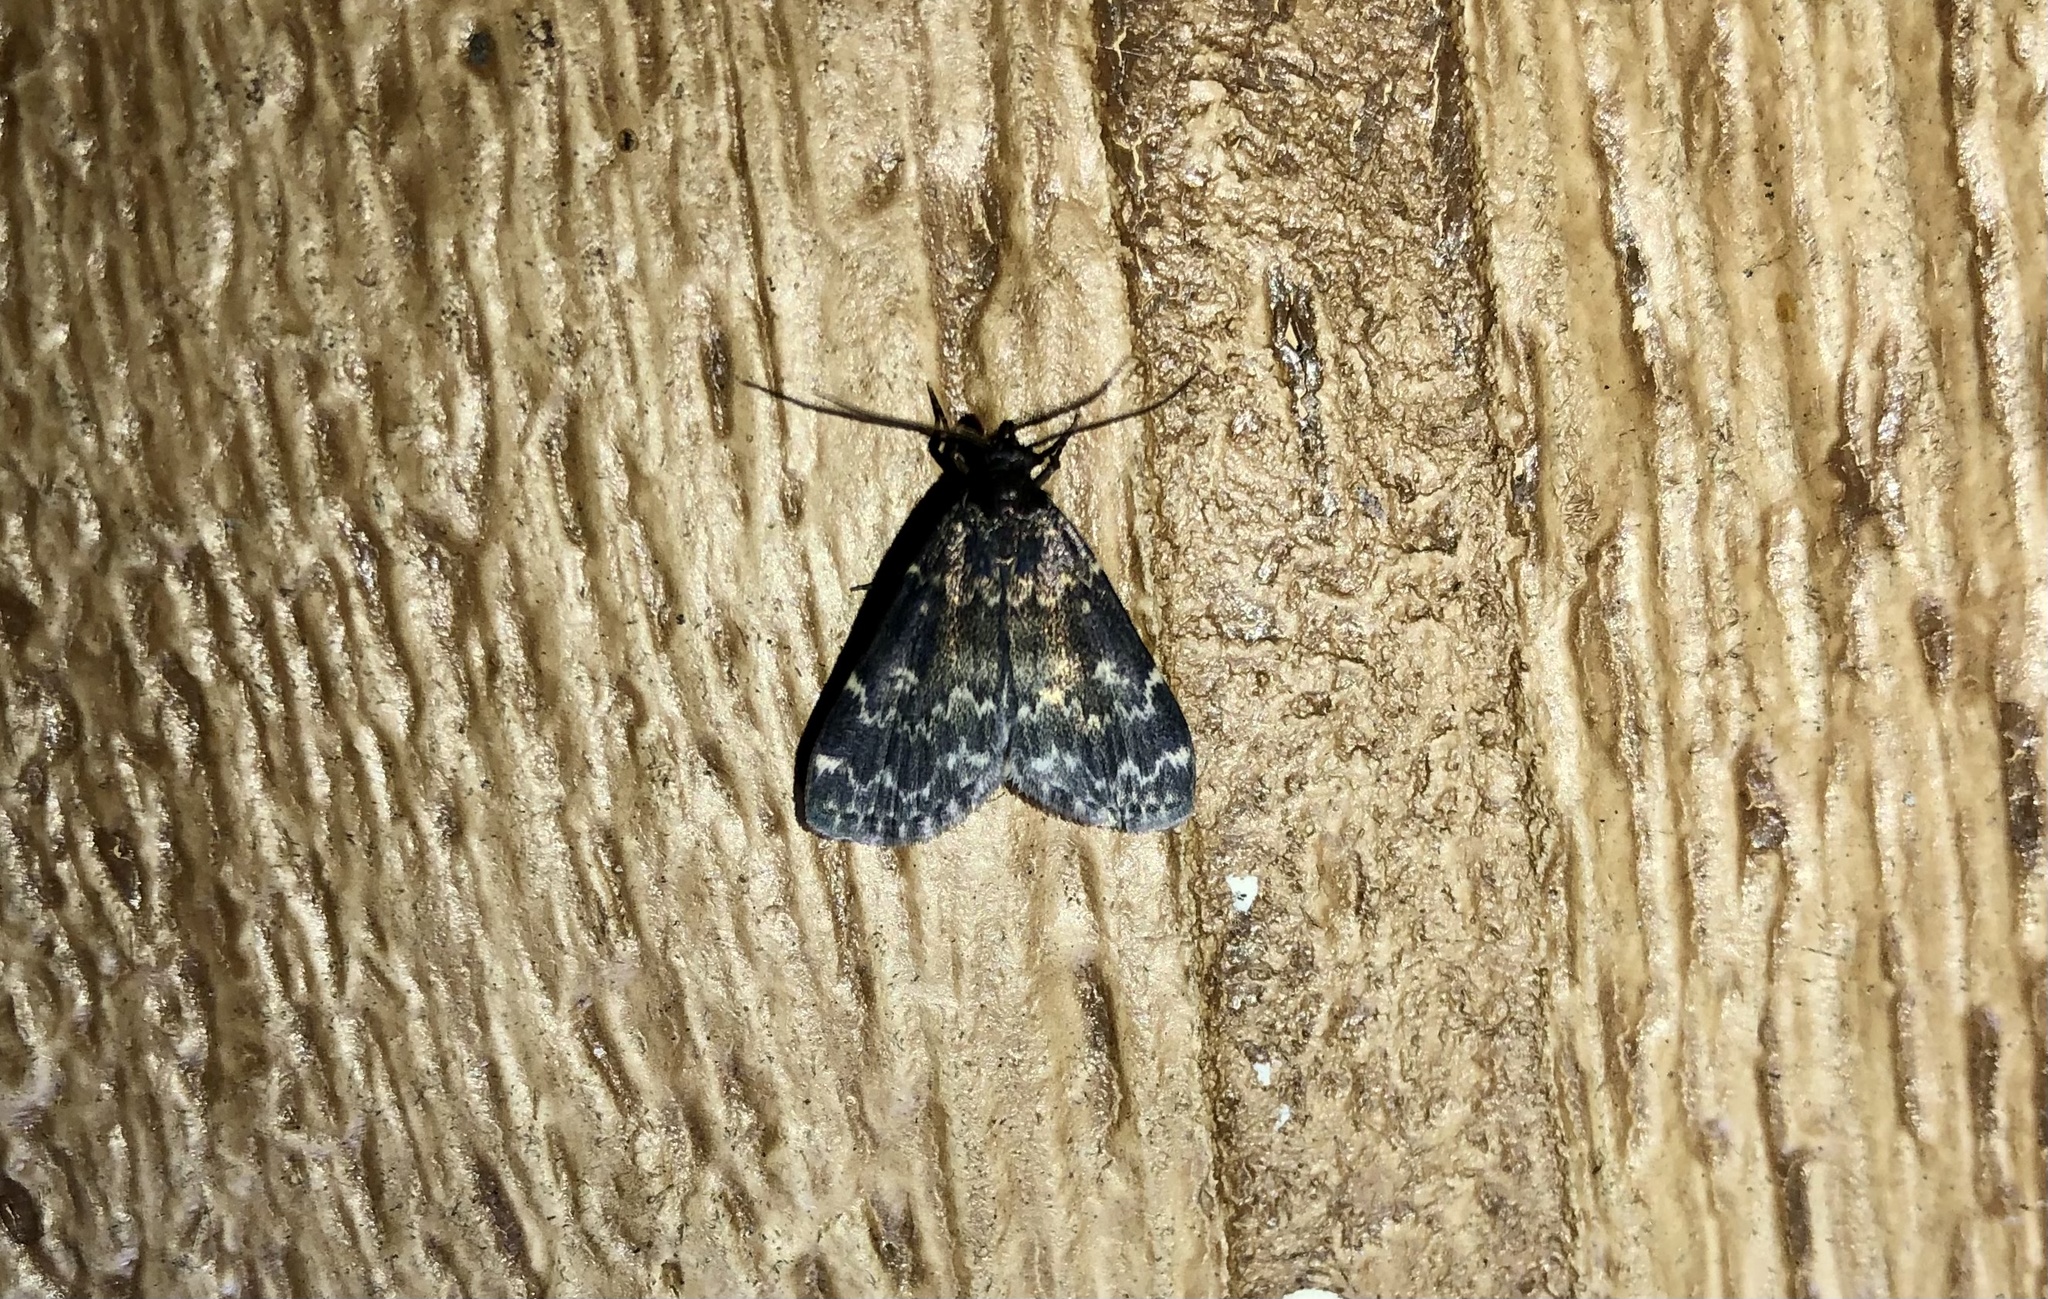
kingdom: Animalia
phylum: Arthropoda
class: Insecta
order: Lepidoptera
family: Erebidae
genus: Idia
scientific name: Idia lubricalis
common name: Twin-striped tabby
